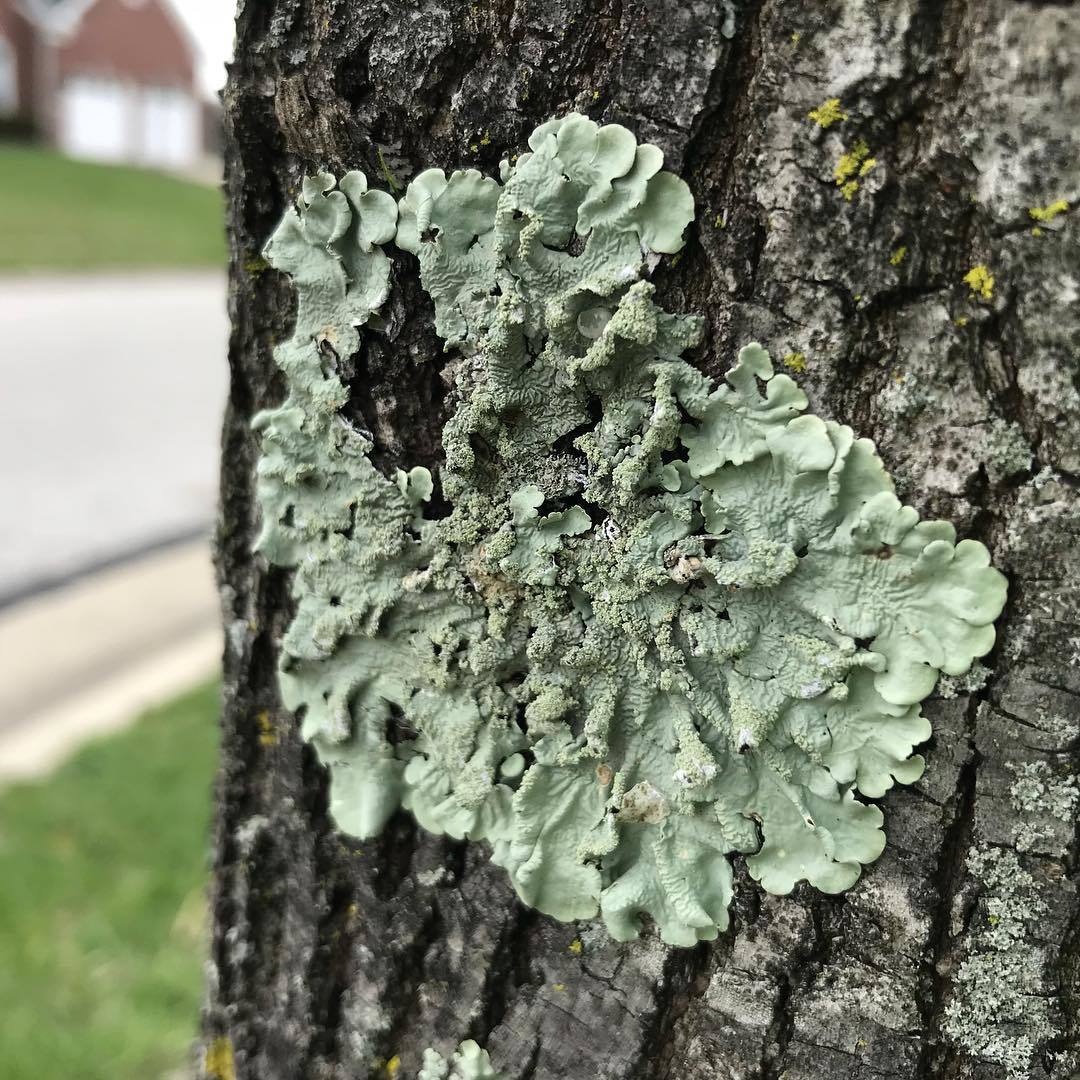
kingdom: Fungi
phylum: Ascomycota
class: Lecanoromycetes
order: Lecanorales
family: Parmeliaceae
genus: Flavoparmelia
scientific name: Flavoparmelia caperata
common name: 40-mile per hour lichen
